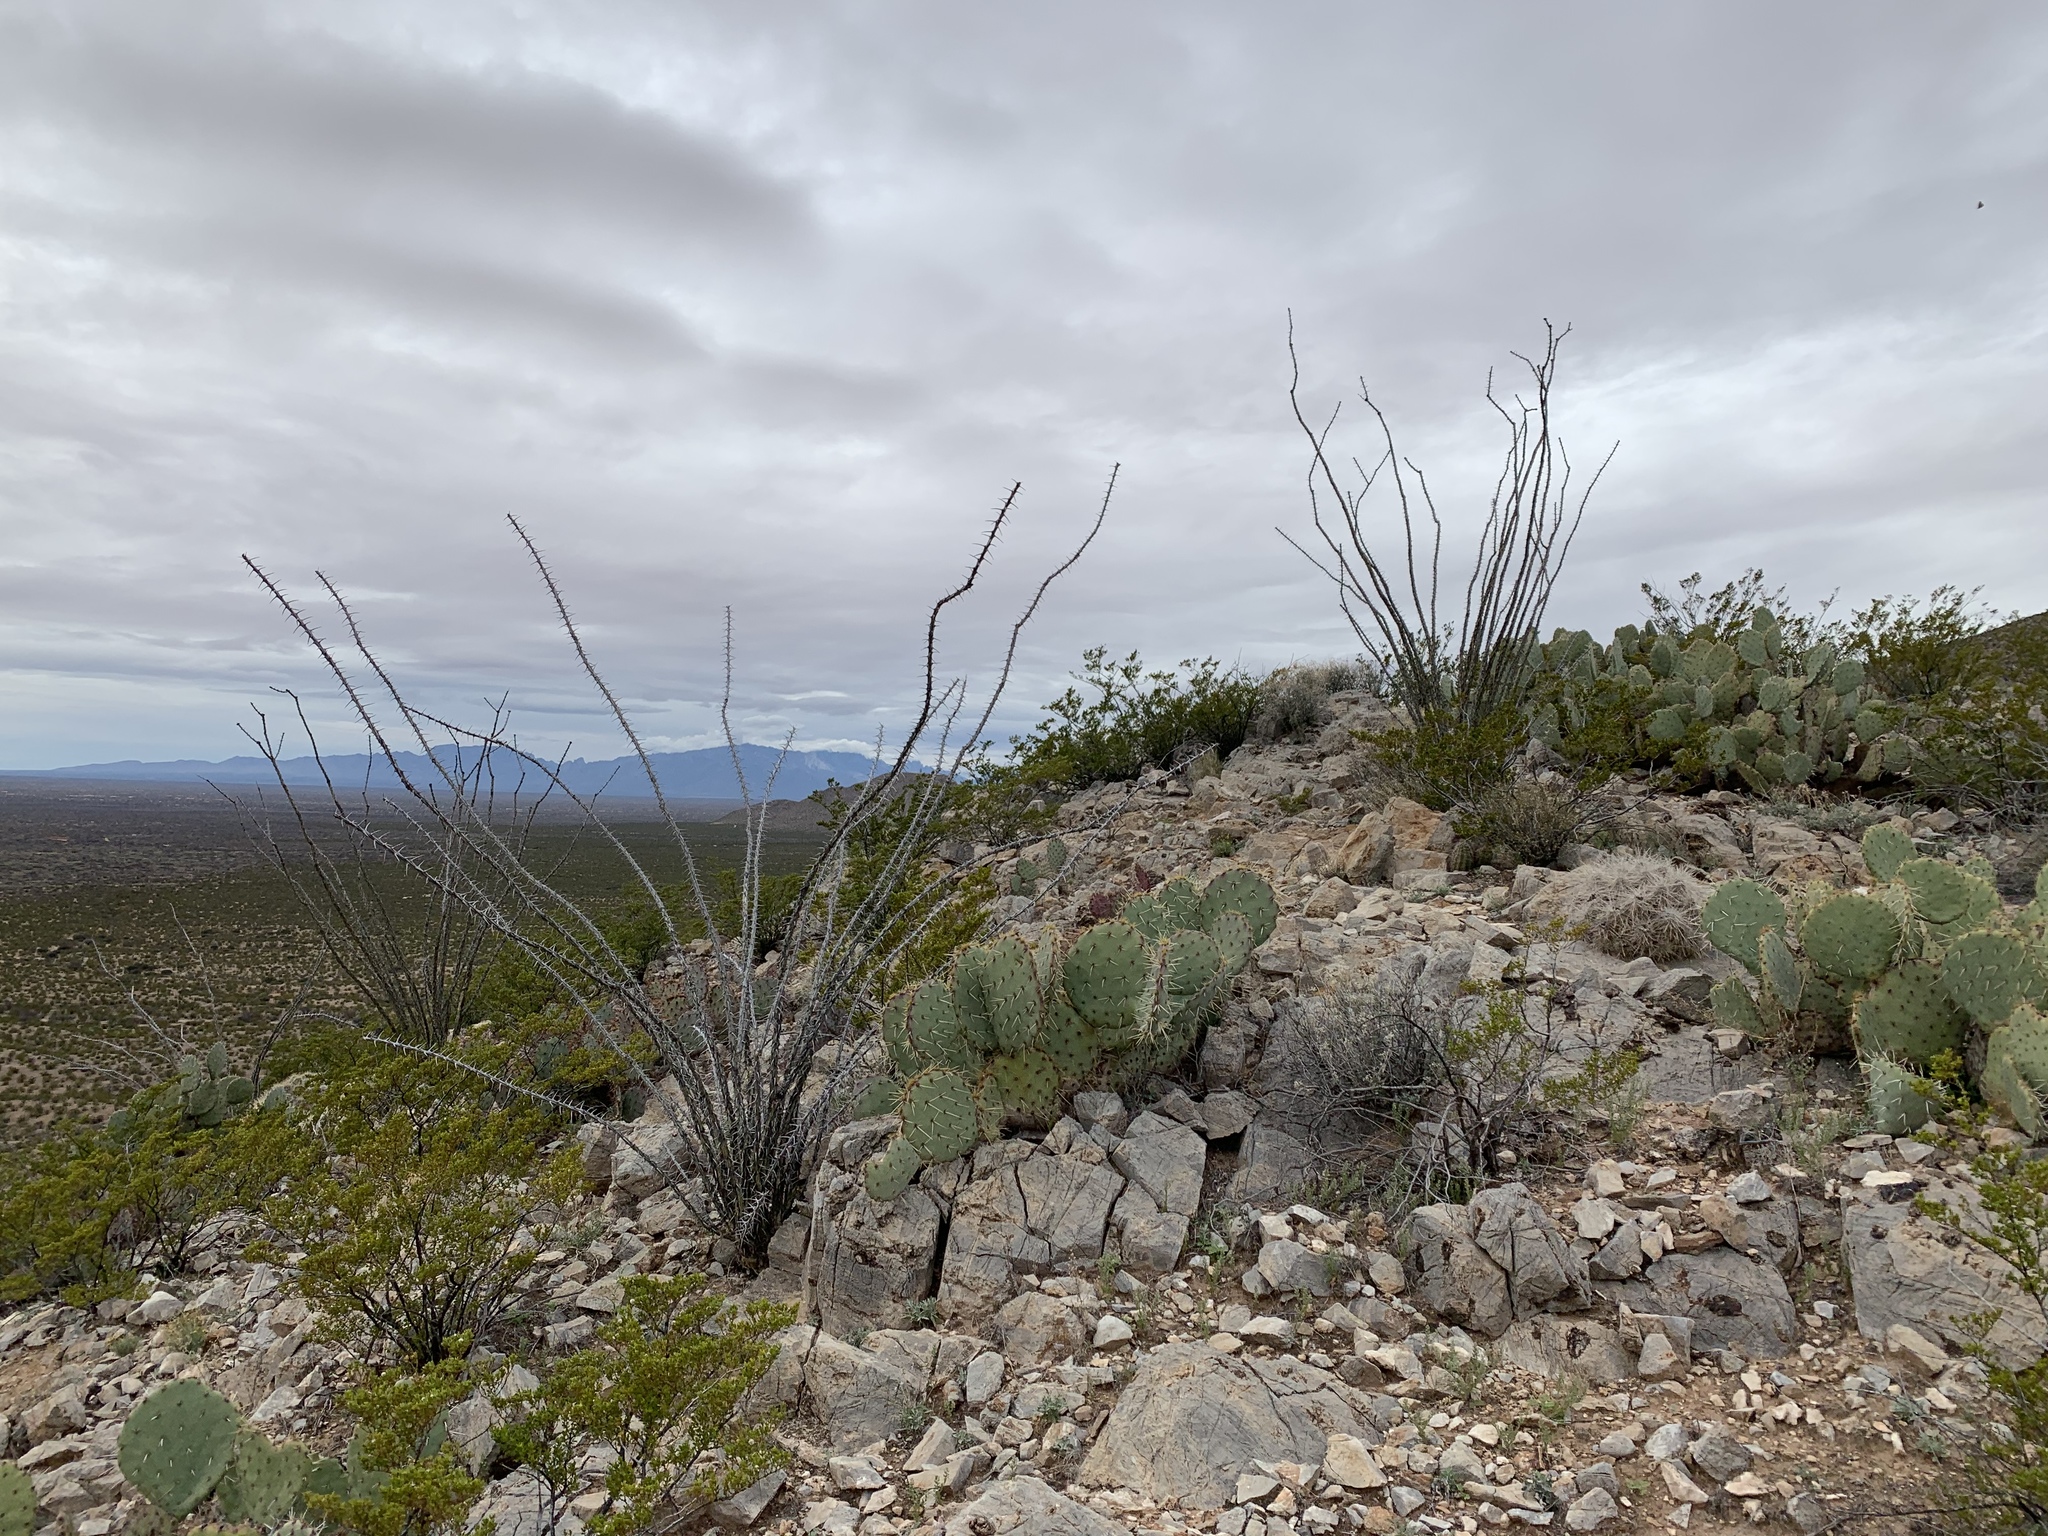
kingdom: Plantae
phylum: Tracheophyta
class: Magnoliopsida
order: Ericales
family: Fouquieriaceae
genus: Fouquieria
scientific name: Fouquieria splendens
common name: Vine-cactus
